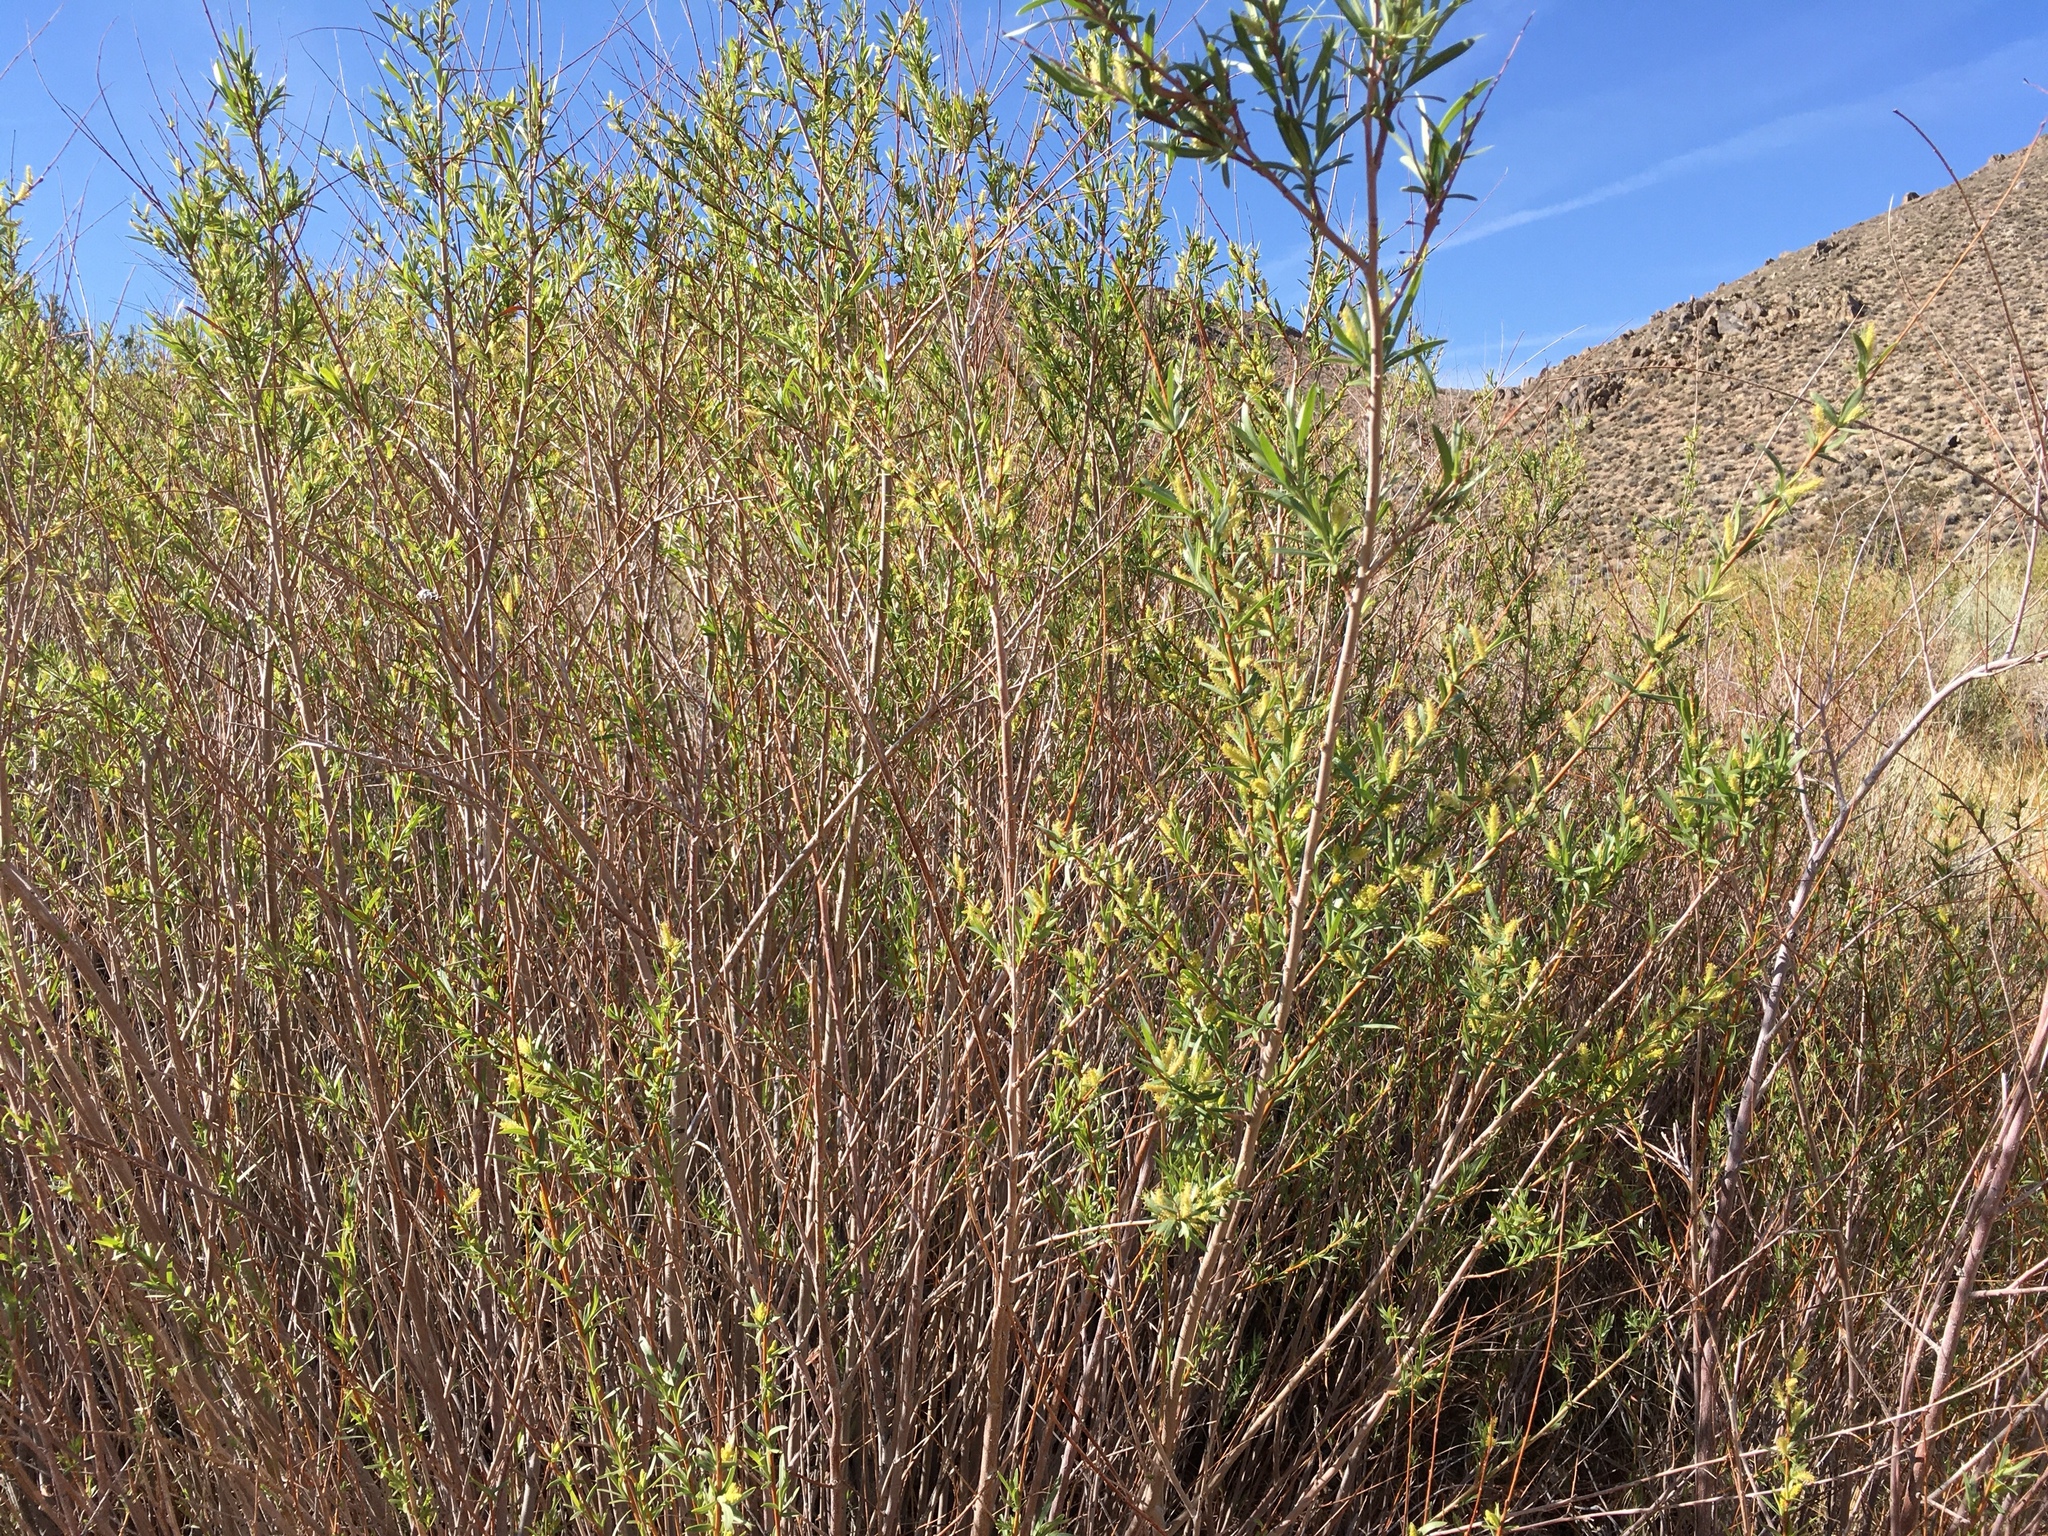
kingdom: Plantae
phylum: Tracheophyta
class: Magnoliopsida
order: Malpighiales
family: Salicaceae
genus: Salix
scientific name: Salix exigua
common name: Coyote willow
